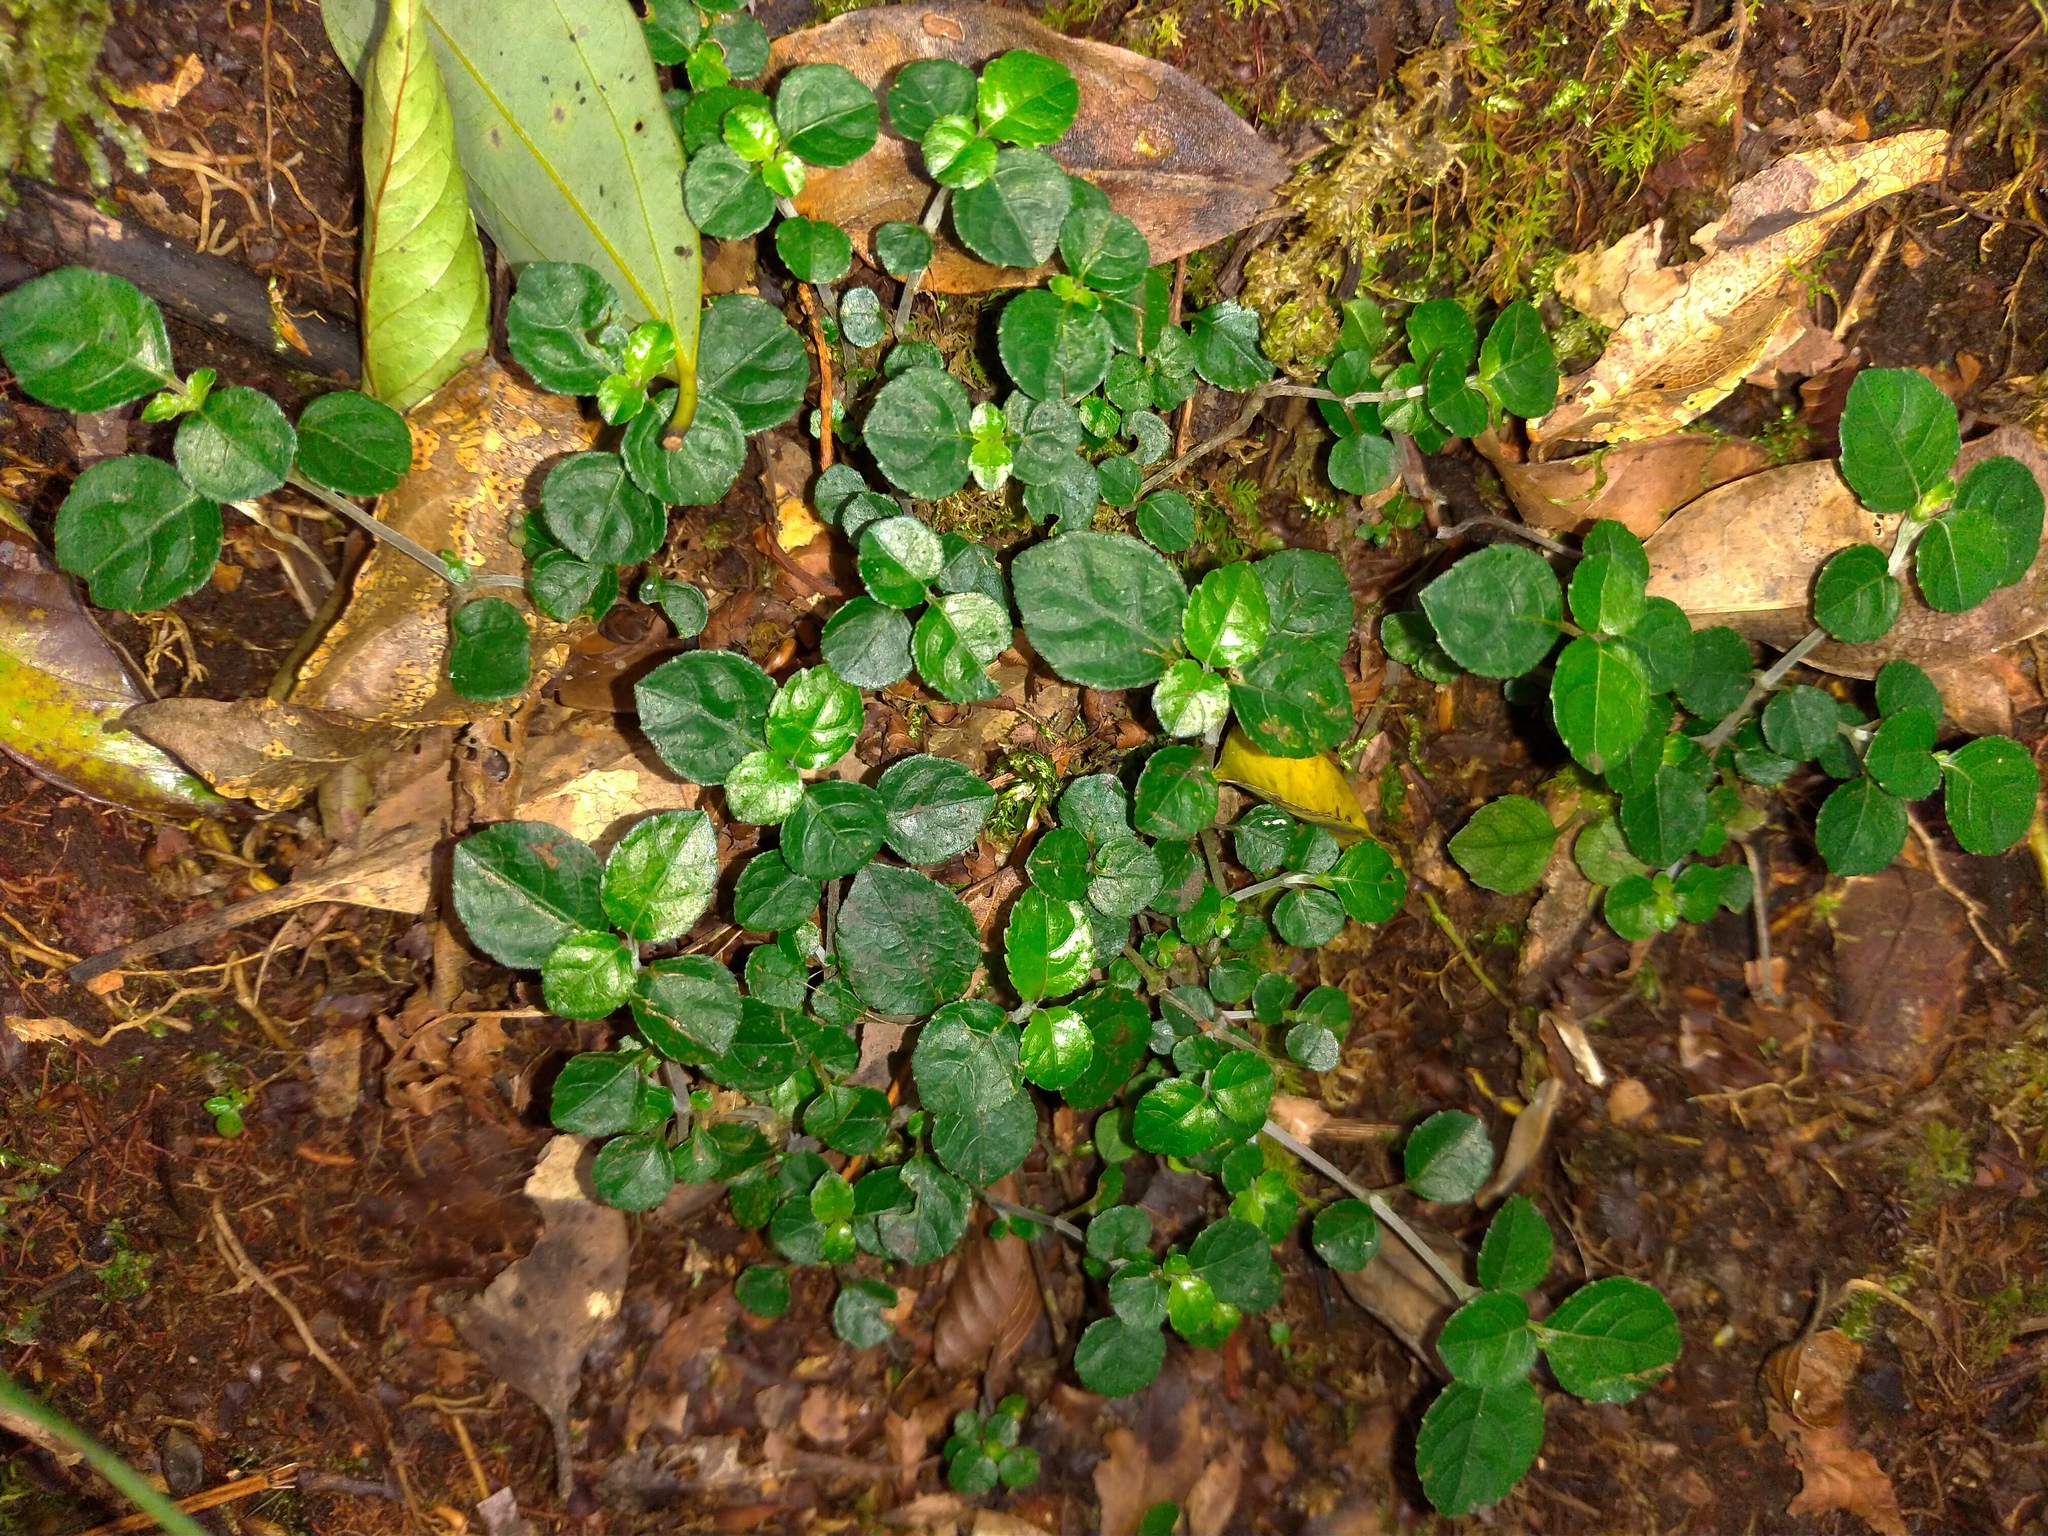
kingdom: Plantae
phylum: Tracheophyta
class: Magnoliopsida
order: Gentianales
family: Rubiaceae
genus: Mitchella
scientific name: Mitchella undulata
